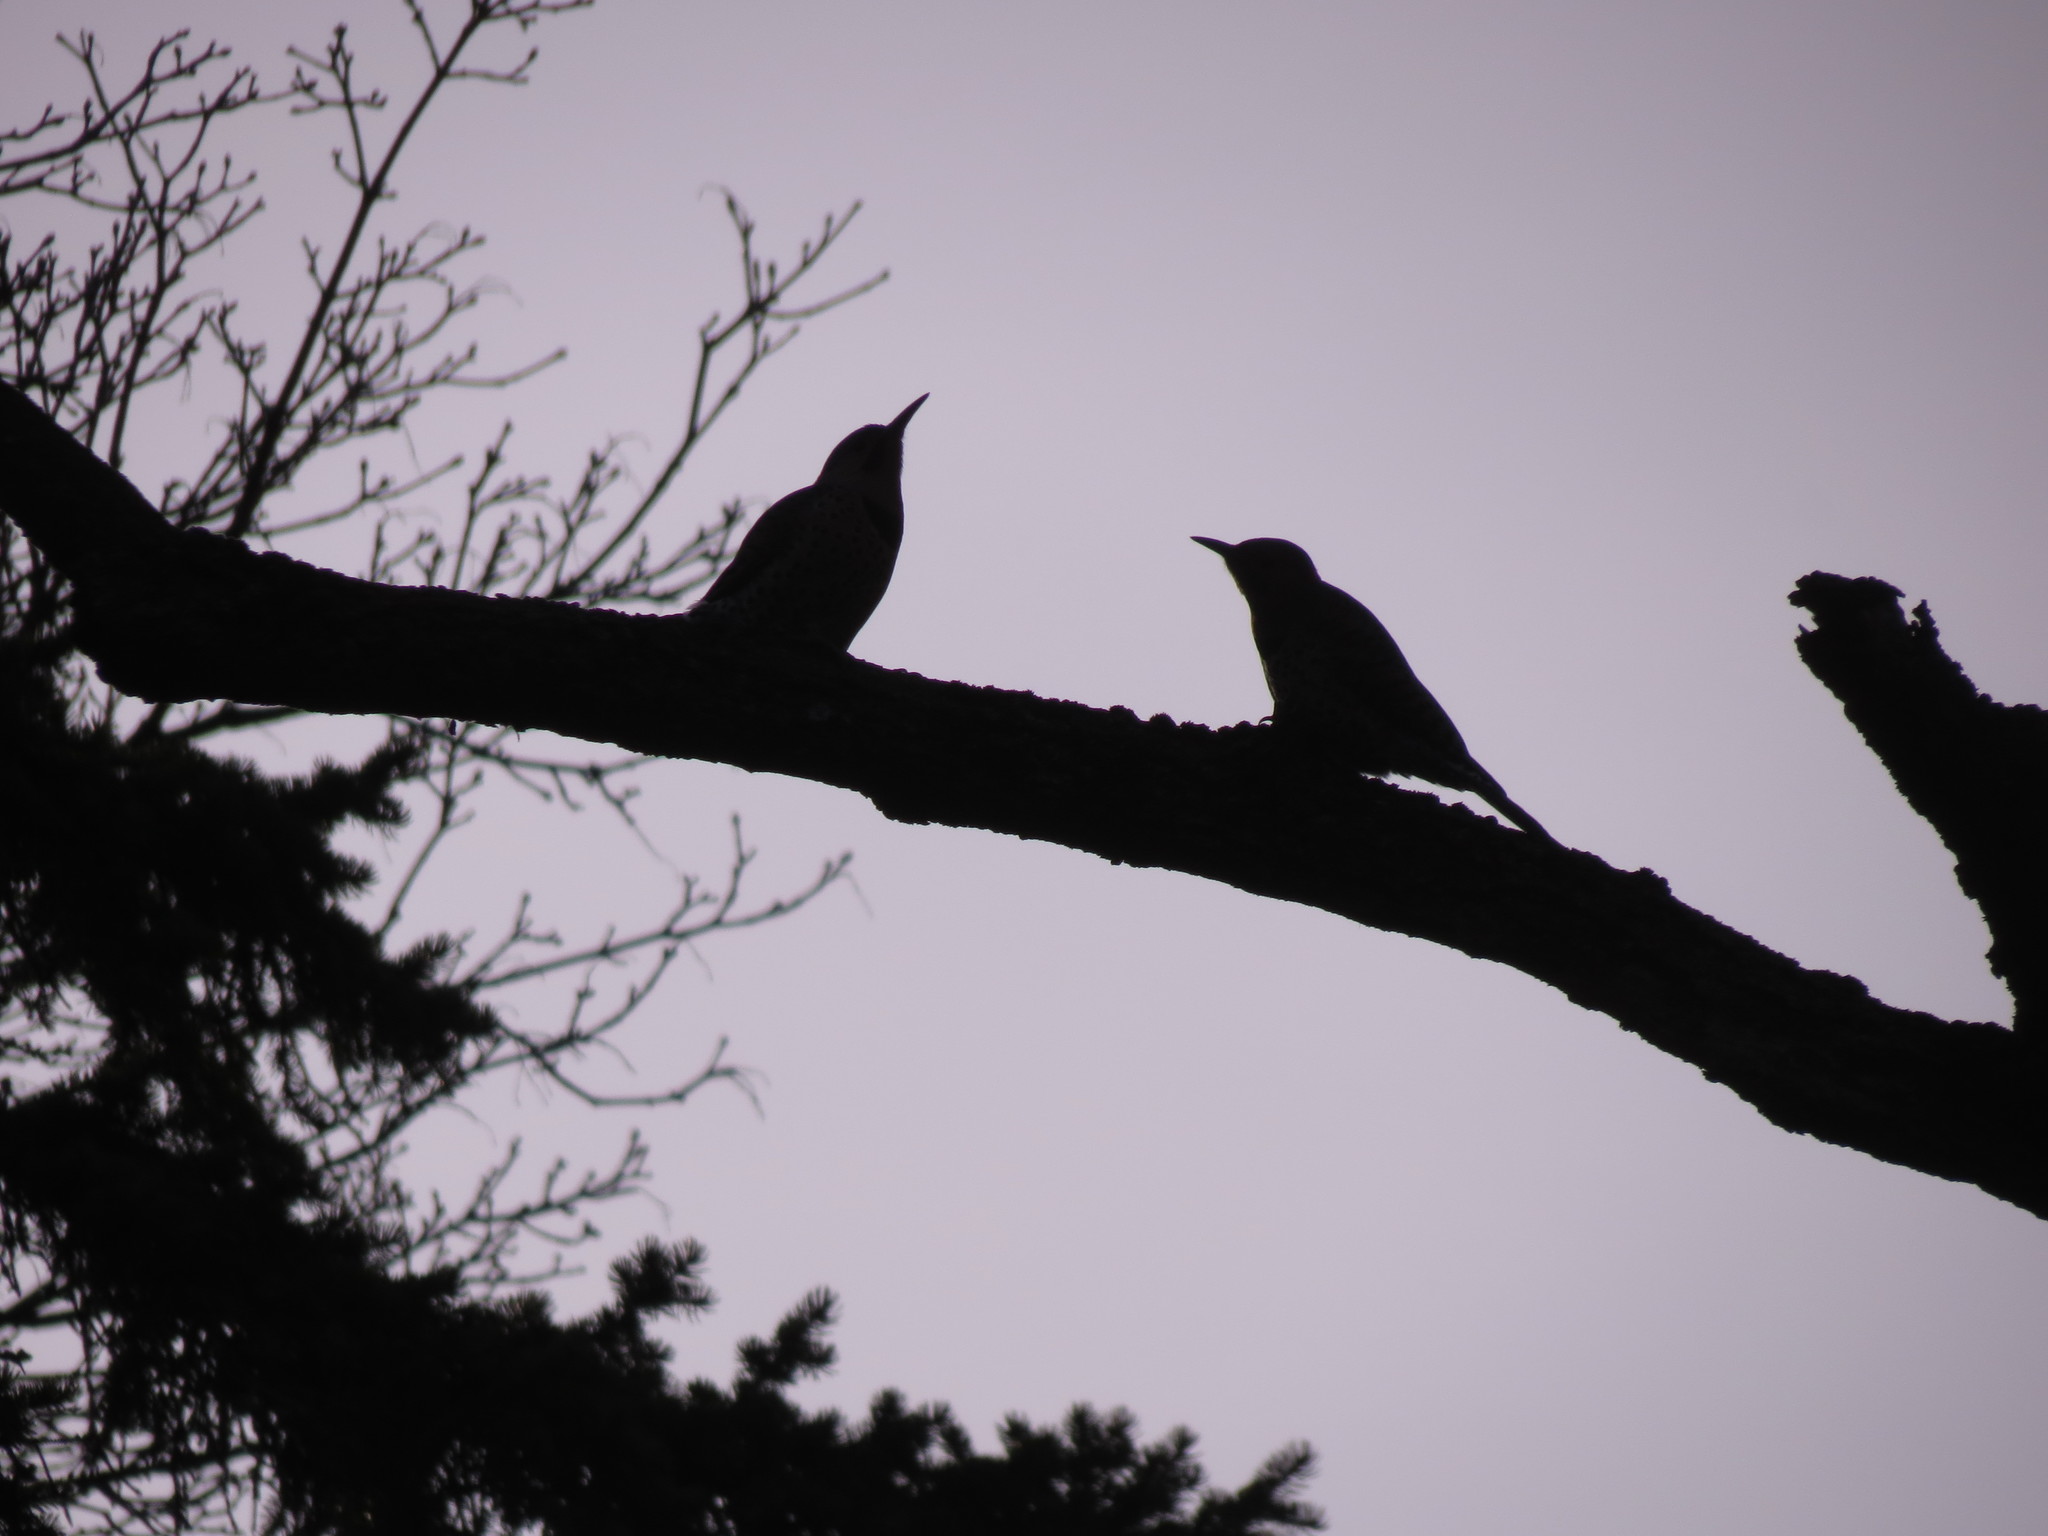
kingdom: Animalia
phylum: Chordata
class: Aves
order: Piciformes
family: Picidae
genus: Colaptes
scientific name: Colaptes auratus
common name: Northern flicker
